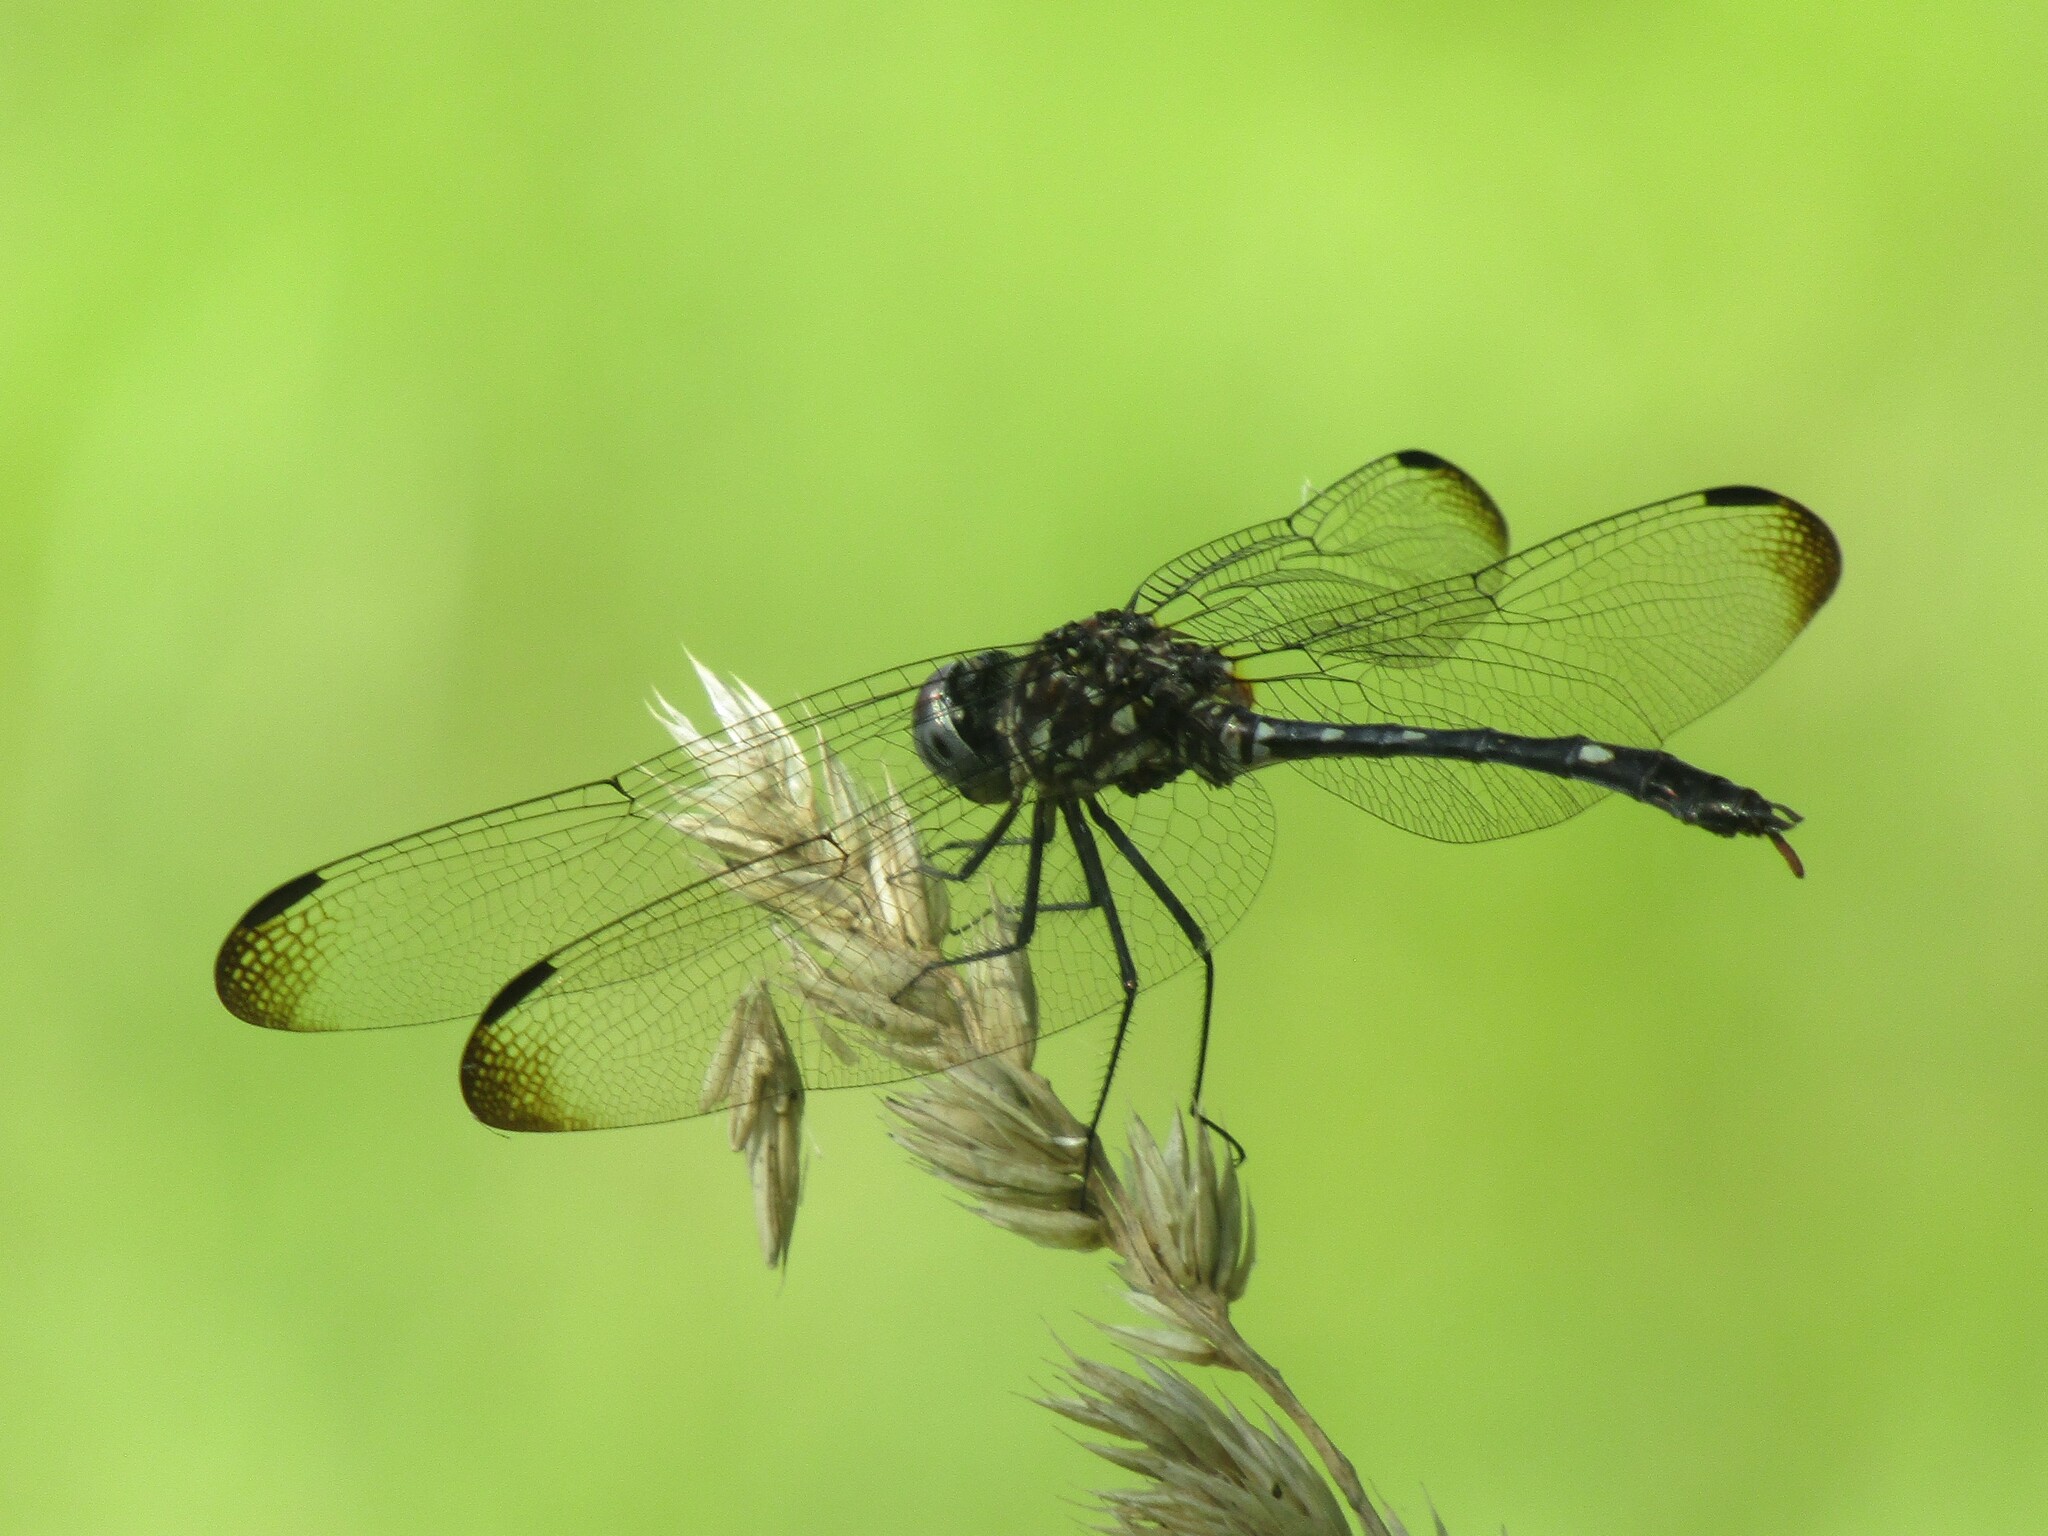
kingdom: Animalia
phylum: Arthropoda
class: Insecta
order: Odonata
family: Libellulidae
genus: Dythemis
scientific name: Dythemis velox
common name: Swift setwing
